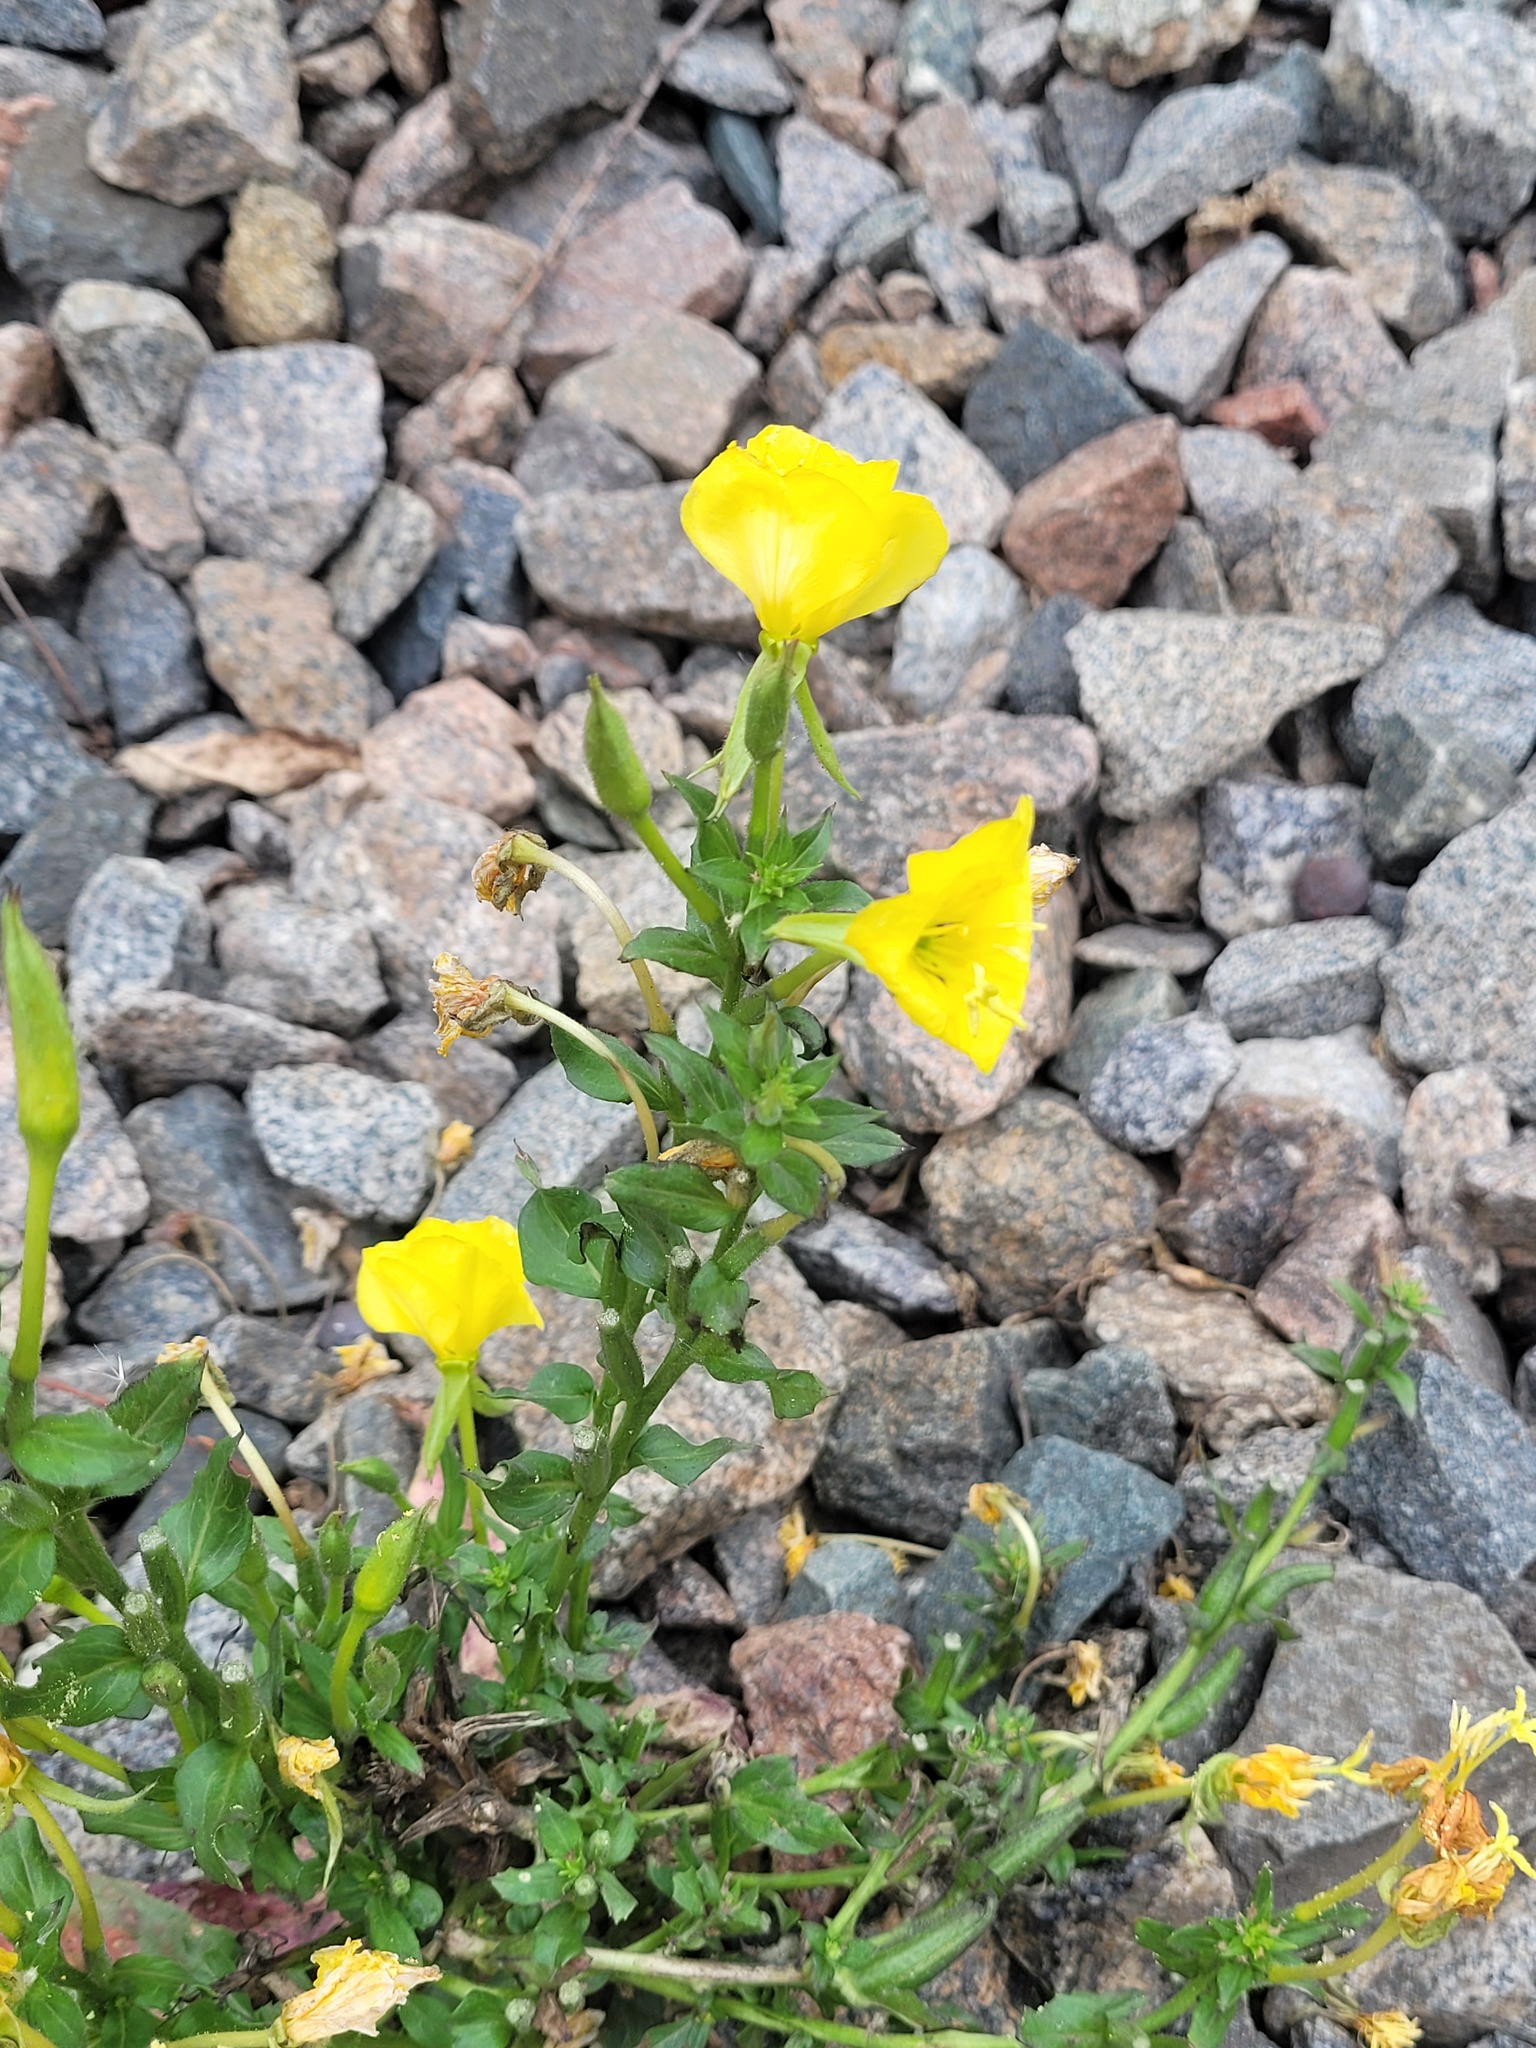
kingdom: Plantae
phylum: Tracheophyta
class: Magnoliopsida
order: Myrtales
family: Onagraceae
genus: Oenothera
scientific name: Oenothera biennis
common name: Common evening-primrose
